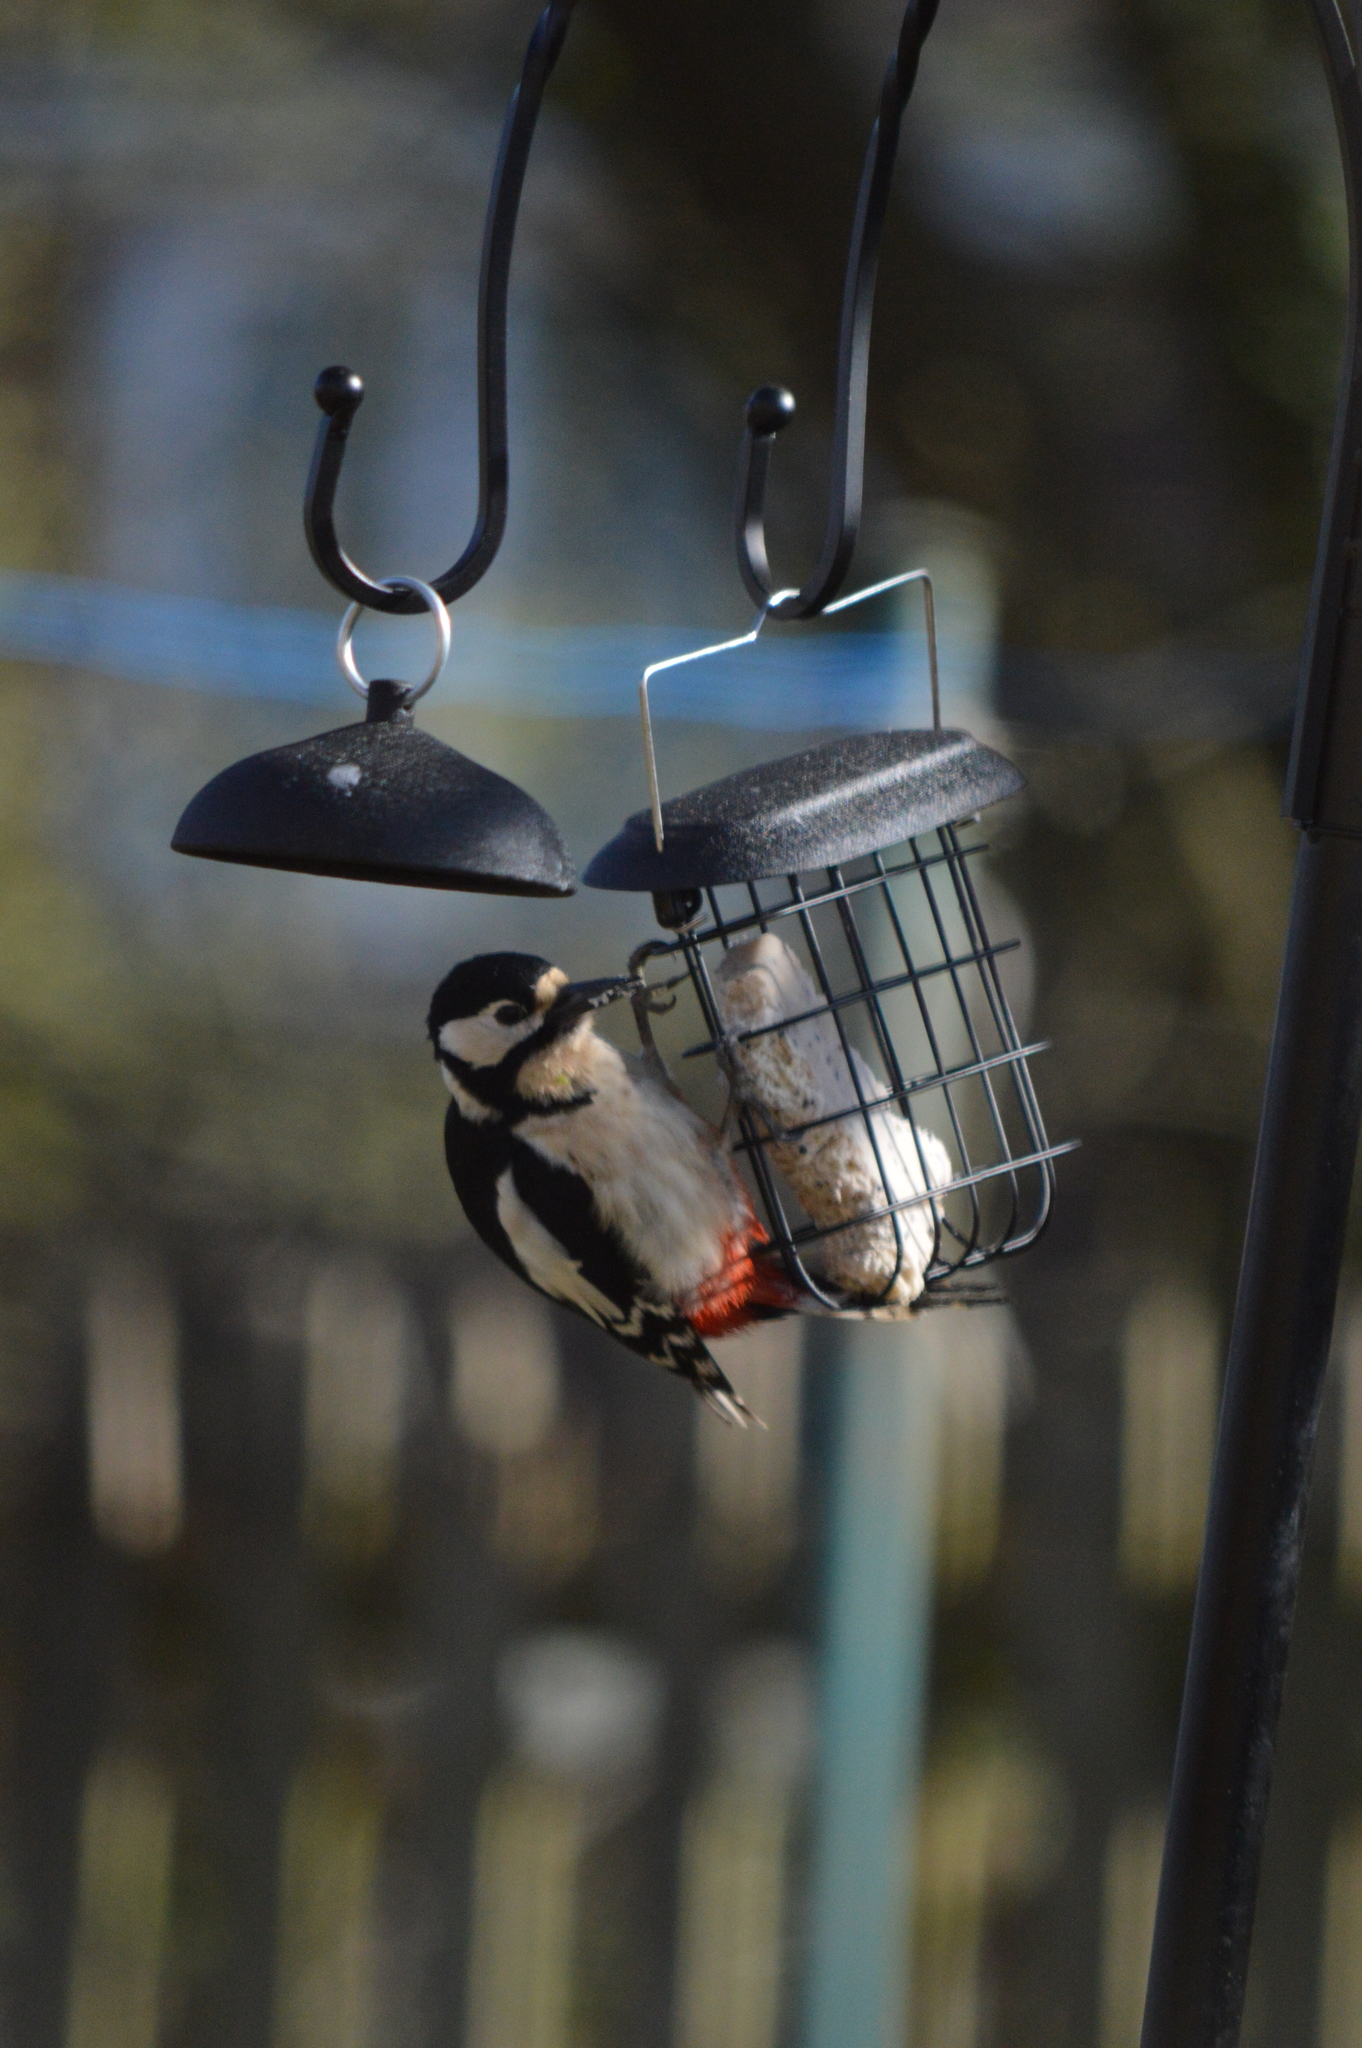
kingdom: Animalia
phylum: Chordata
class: Aves
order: Piciformes
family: Picidae
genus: Dendrocopos
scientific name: Dendrocopos major
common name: Great spotted woodpecker
